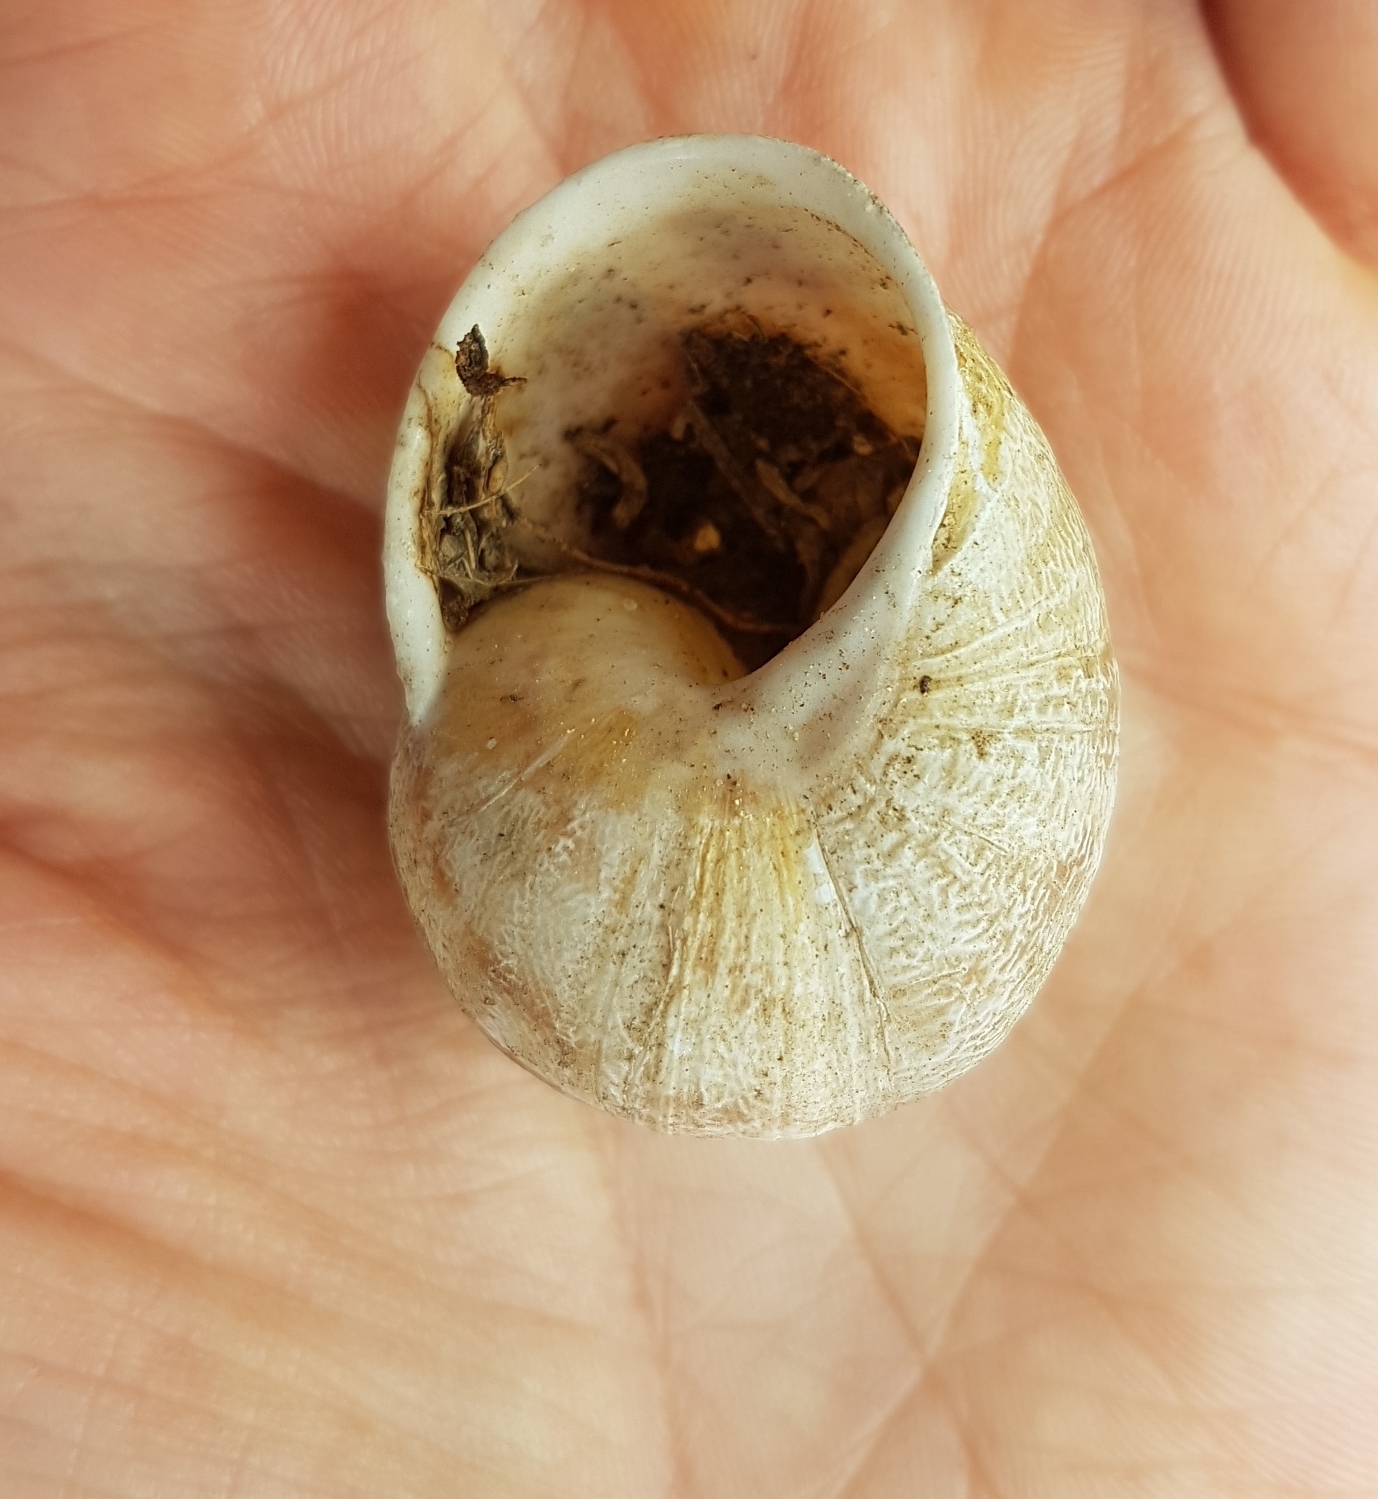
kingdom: Animalia
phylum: Mollusca
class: Gastropoda
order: Stylommatophora
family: Helicidae
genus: Cornu
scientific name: Cornu aspersum
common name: Brown garden snail
